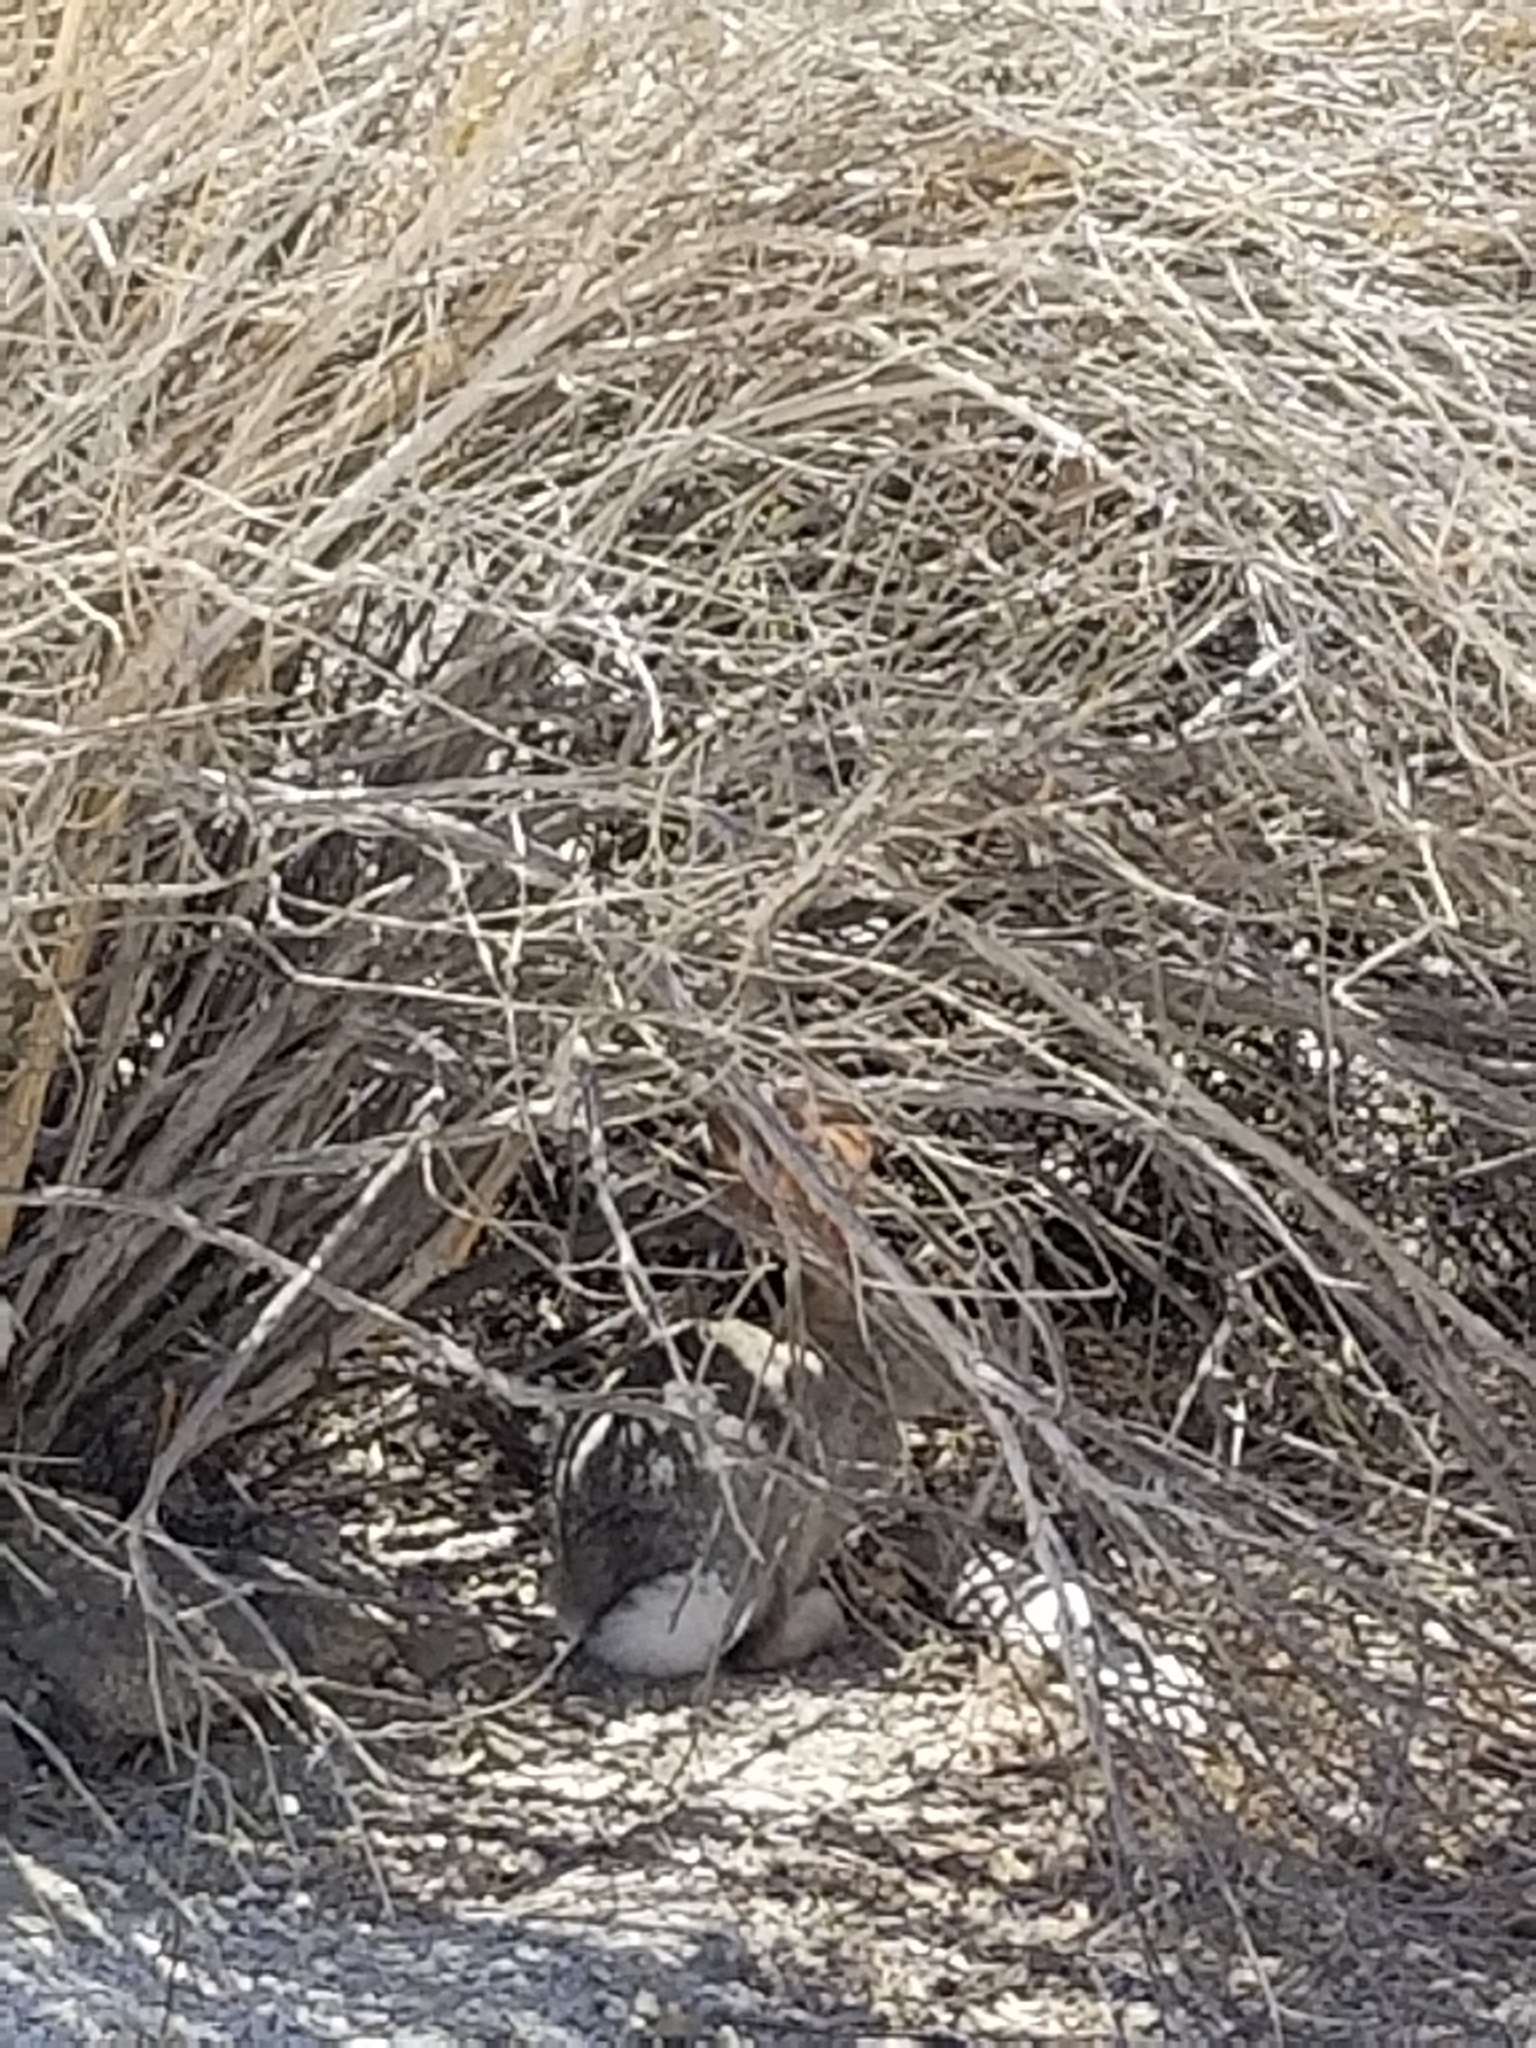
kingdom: Animalia
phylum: Chordata
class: Mammalia
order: Lagomorpha
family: Leporidae
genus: Sylvilagus
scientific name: Sylvilagus audubonii
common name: Desert cottontail
